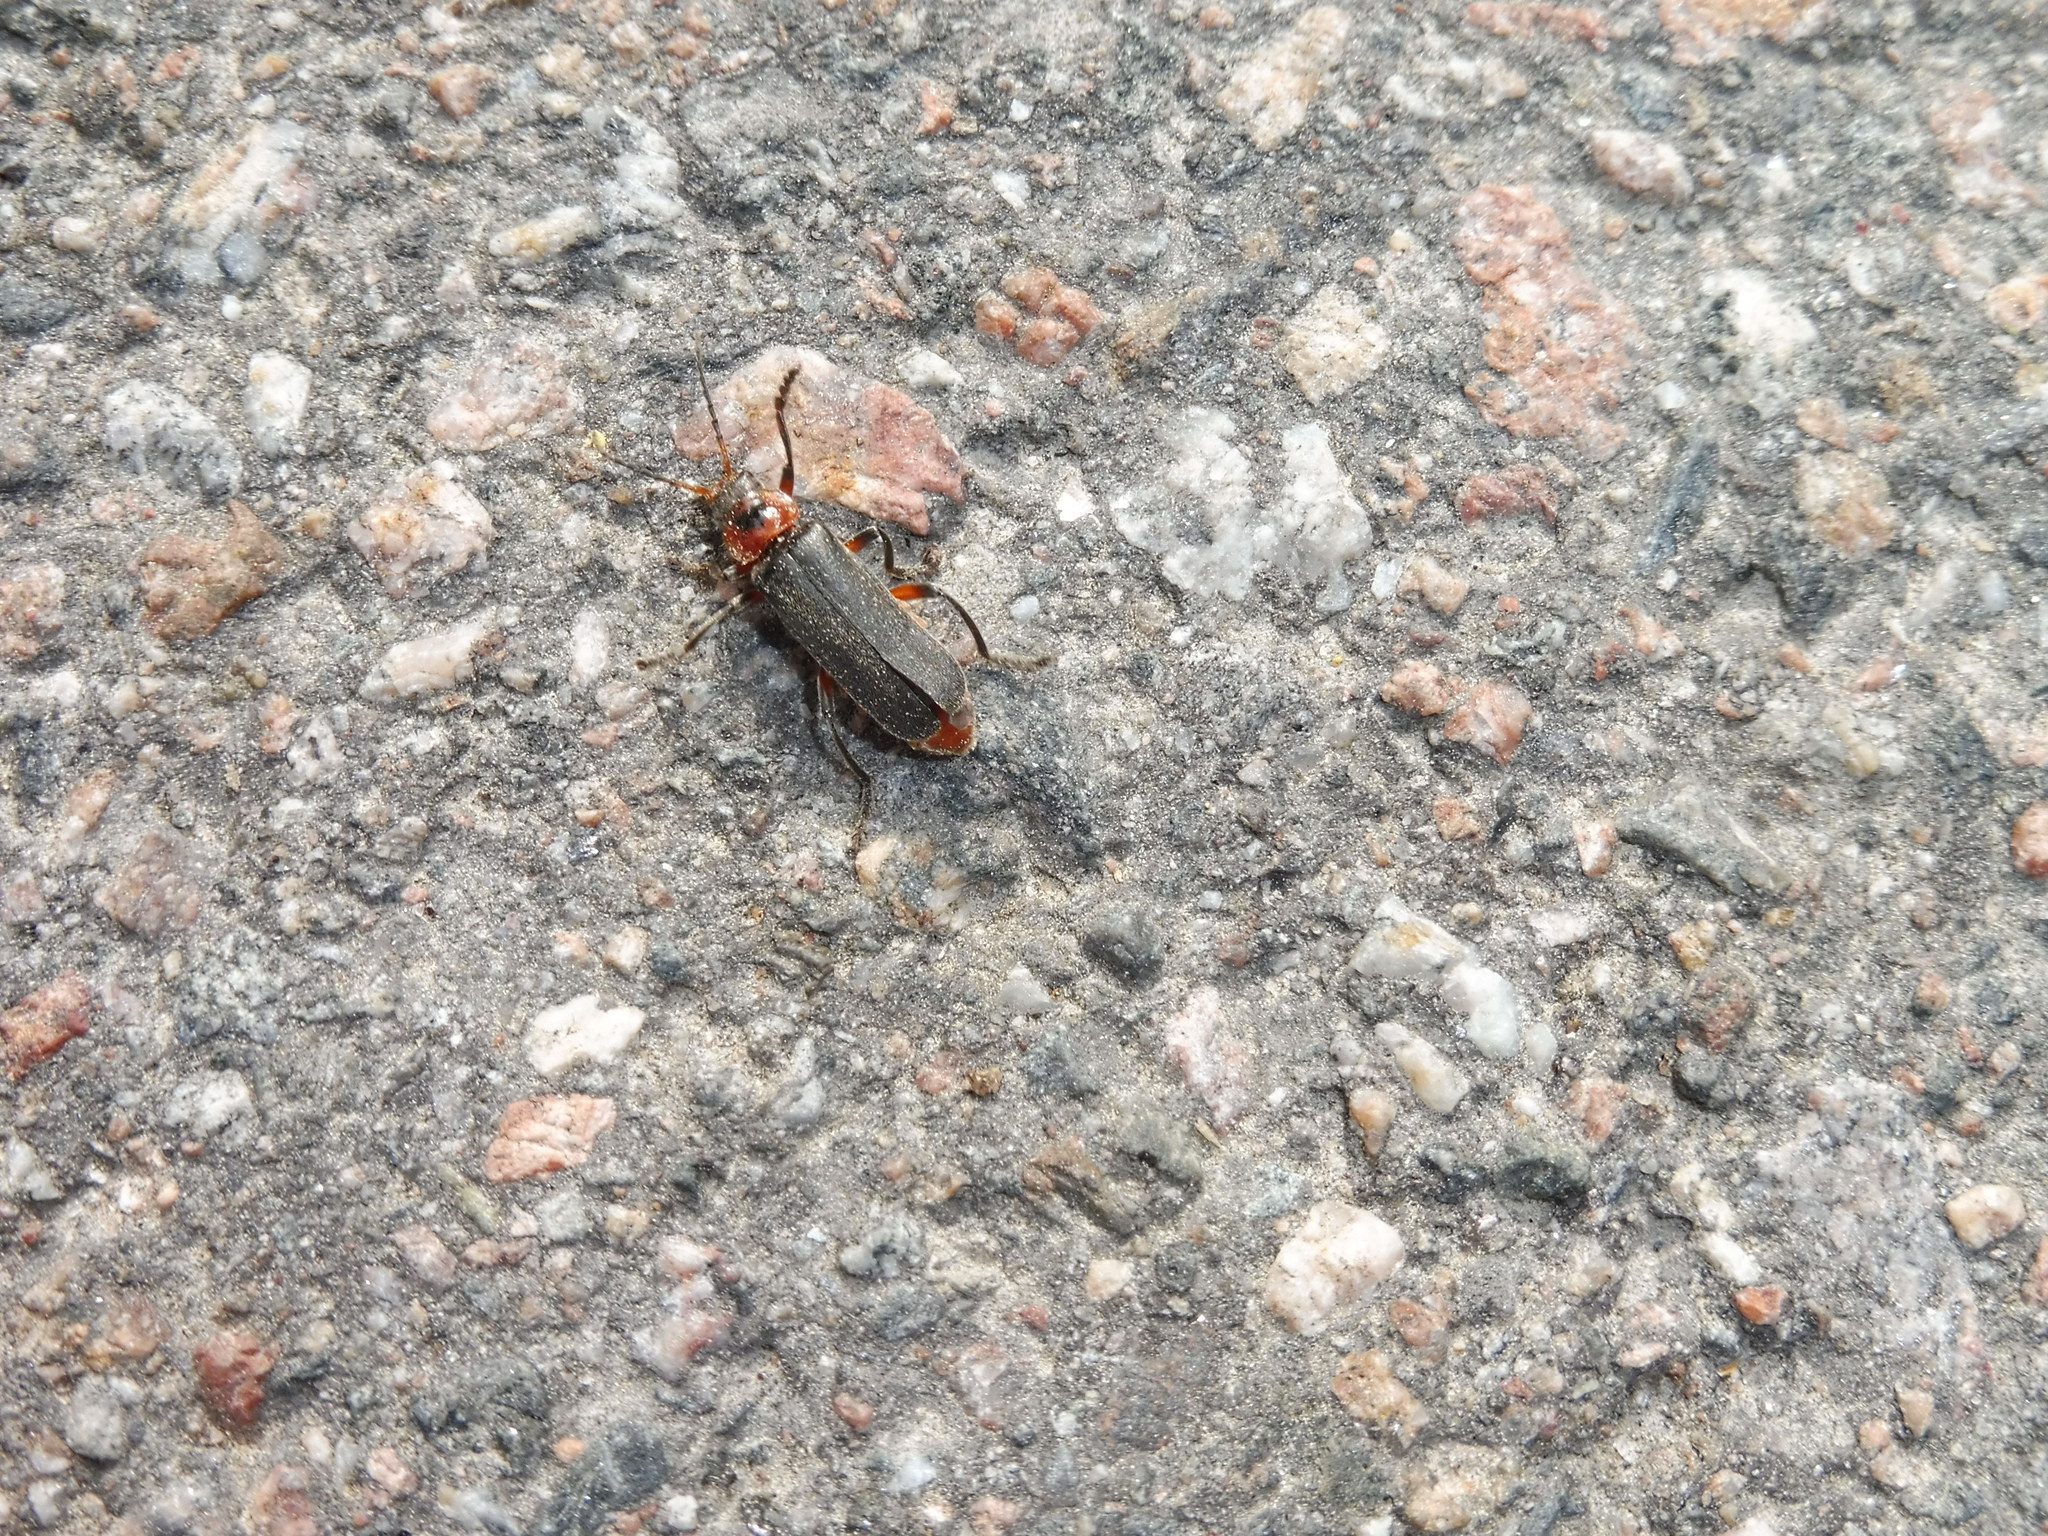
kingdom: Animalia
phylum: Arthropoda
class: Insecta
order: Coleoptera
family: Cantharidae
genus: Cantharis
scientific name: Cantharis rustica
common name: Soldier beetle
